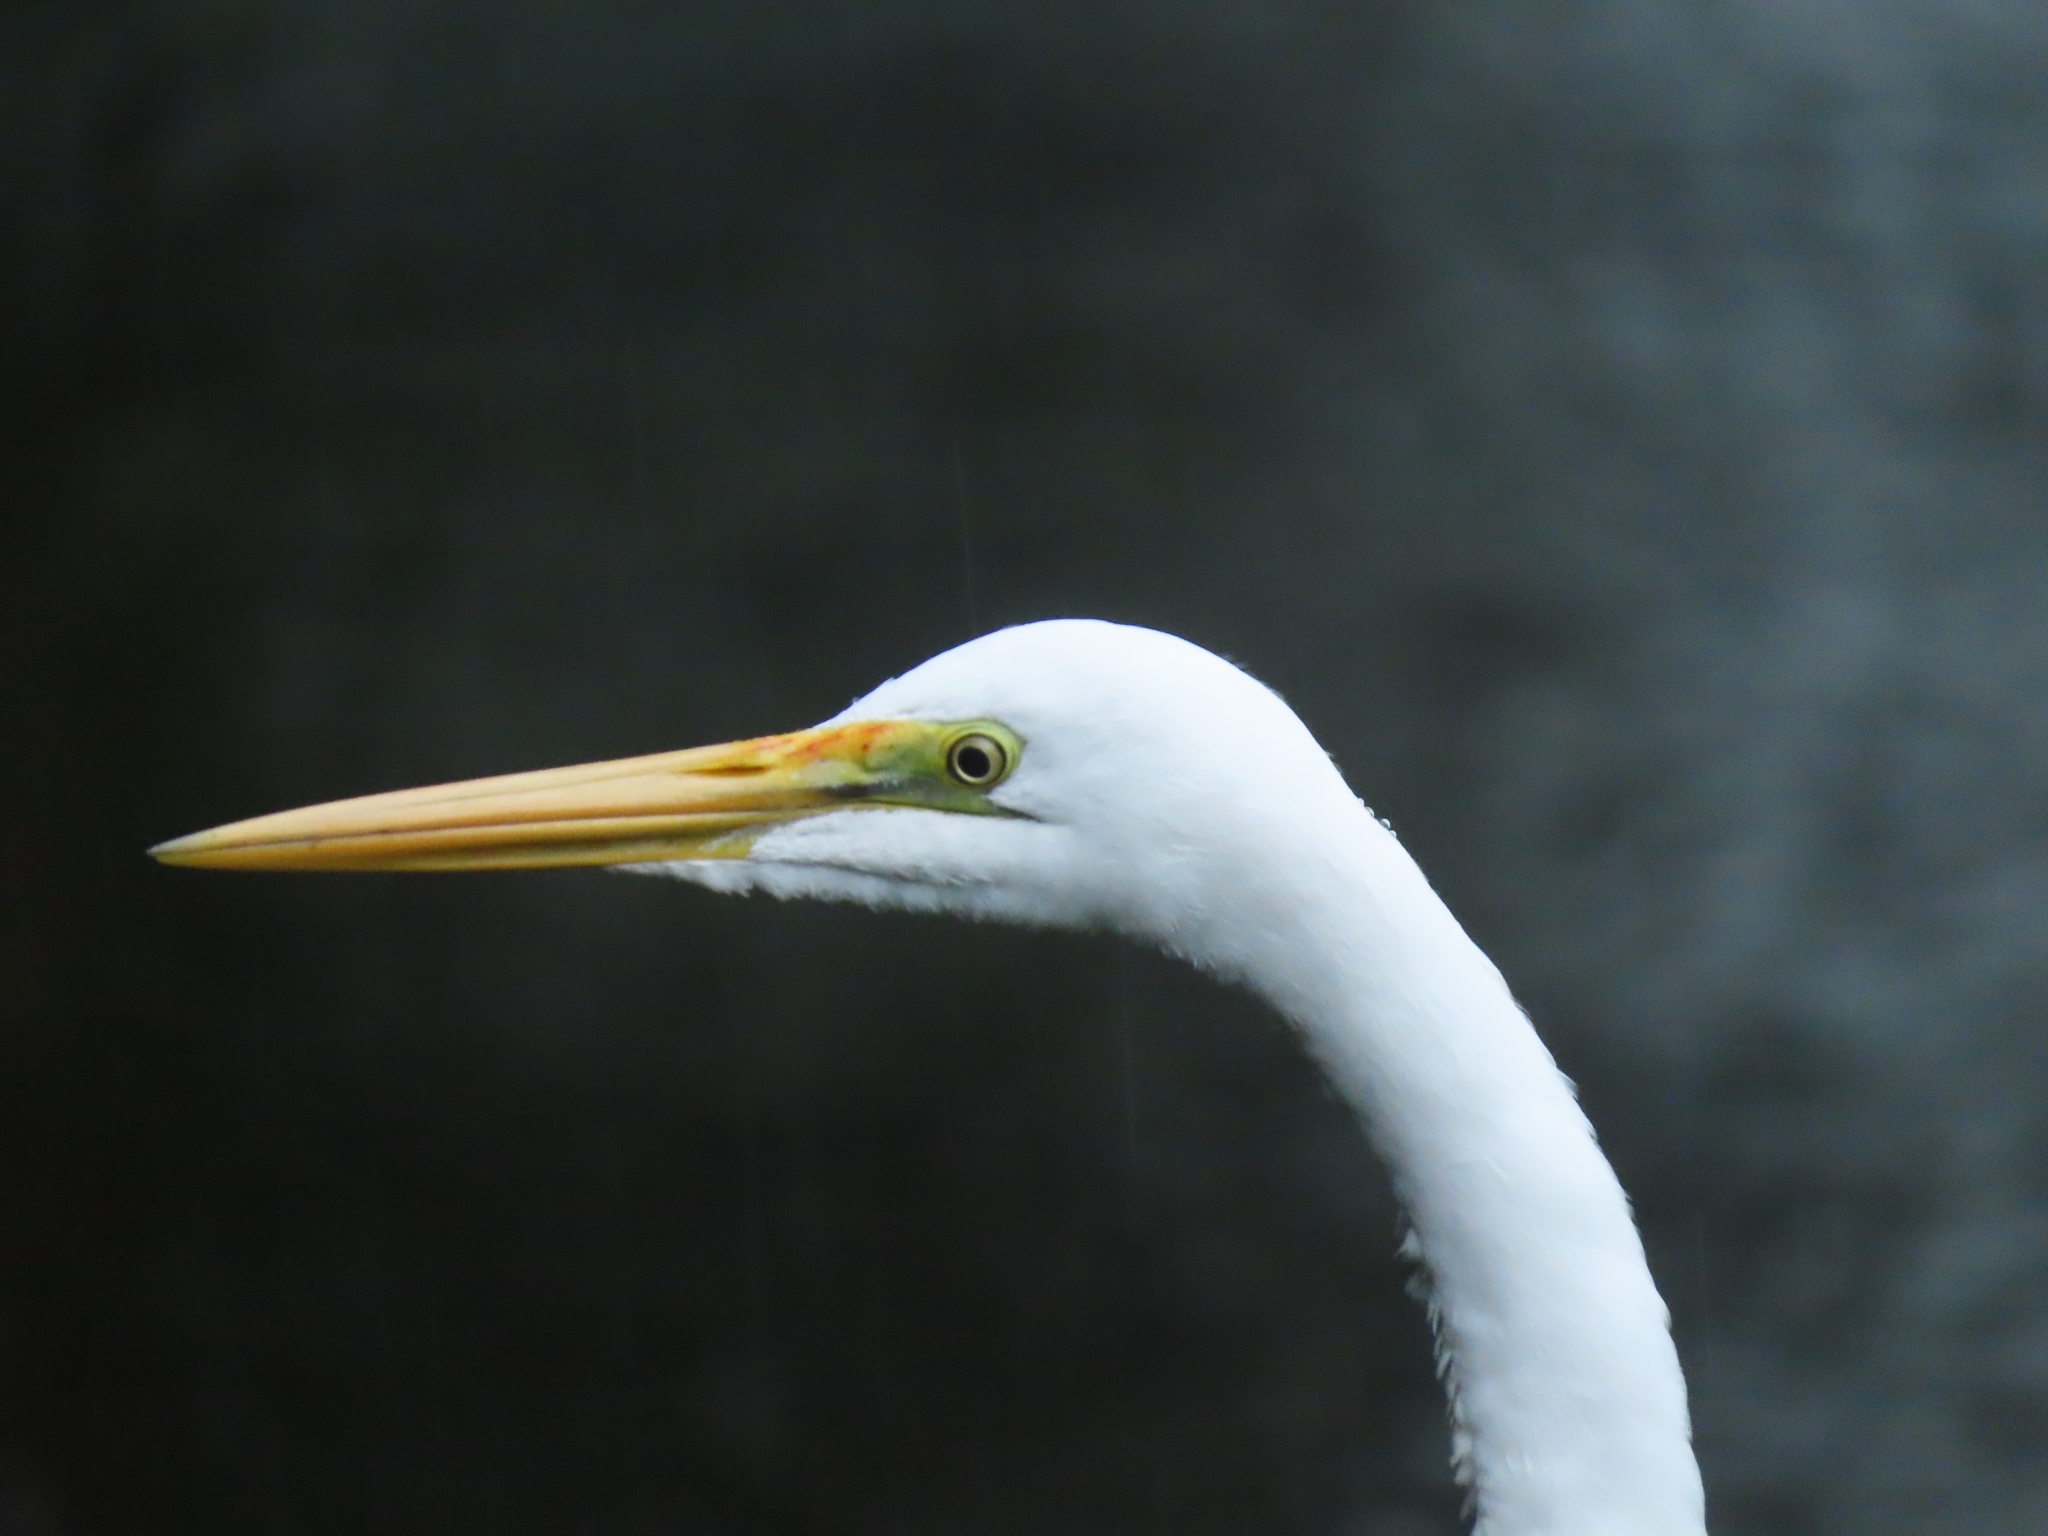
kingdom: Animalia
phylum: Chordata
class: Aves
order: Pelecaniformes
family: Ardeidae
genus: Ardea
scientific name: Ardea alba
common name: Great egret
